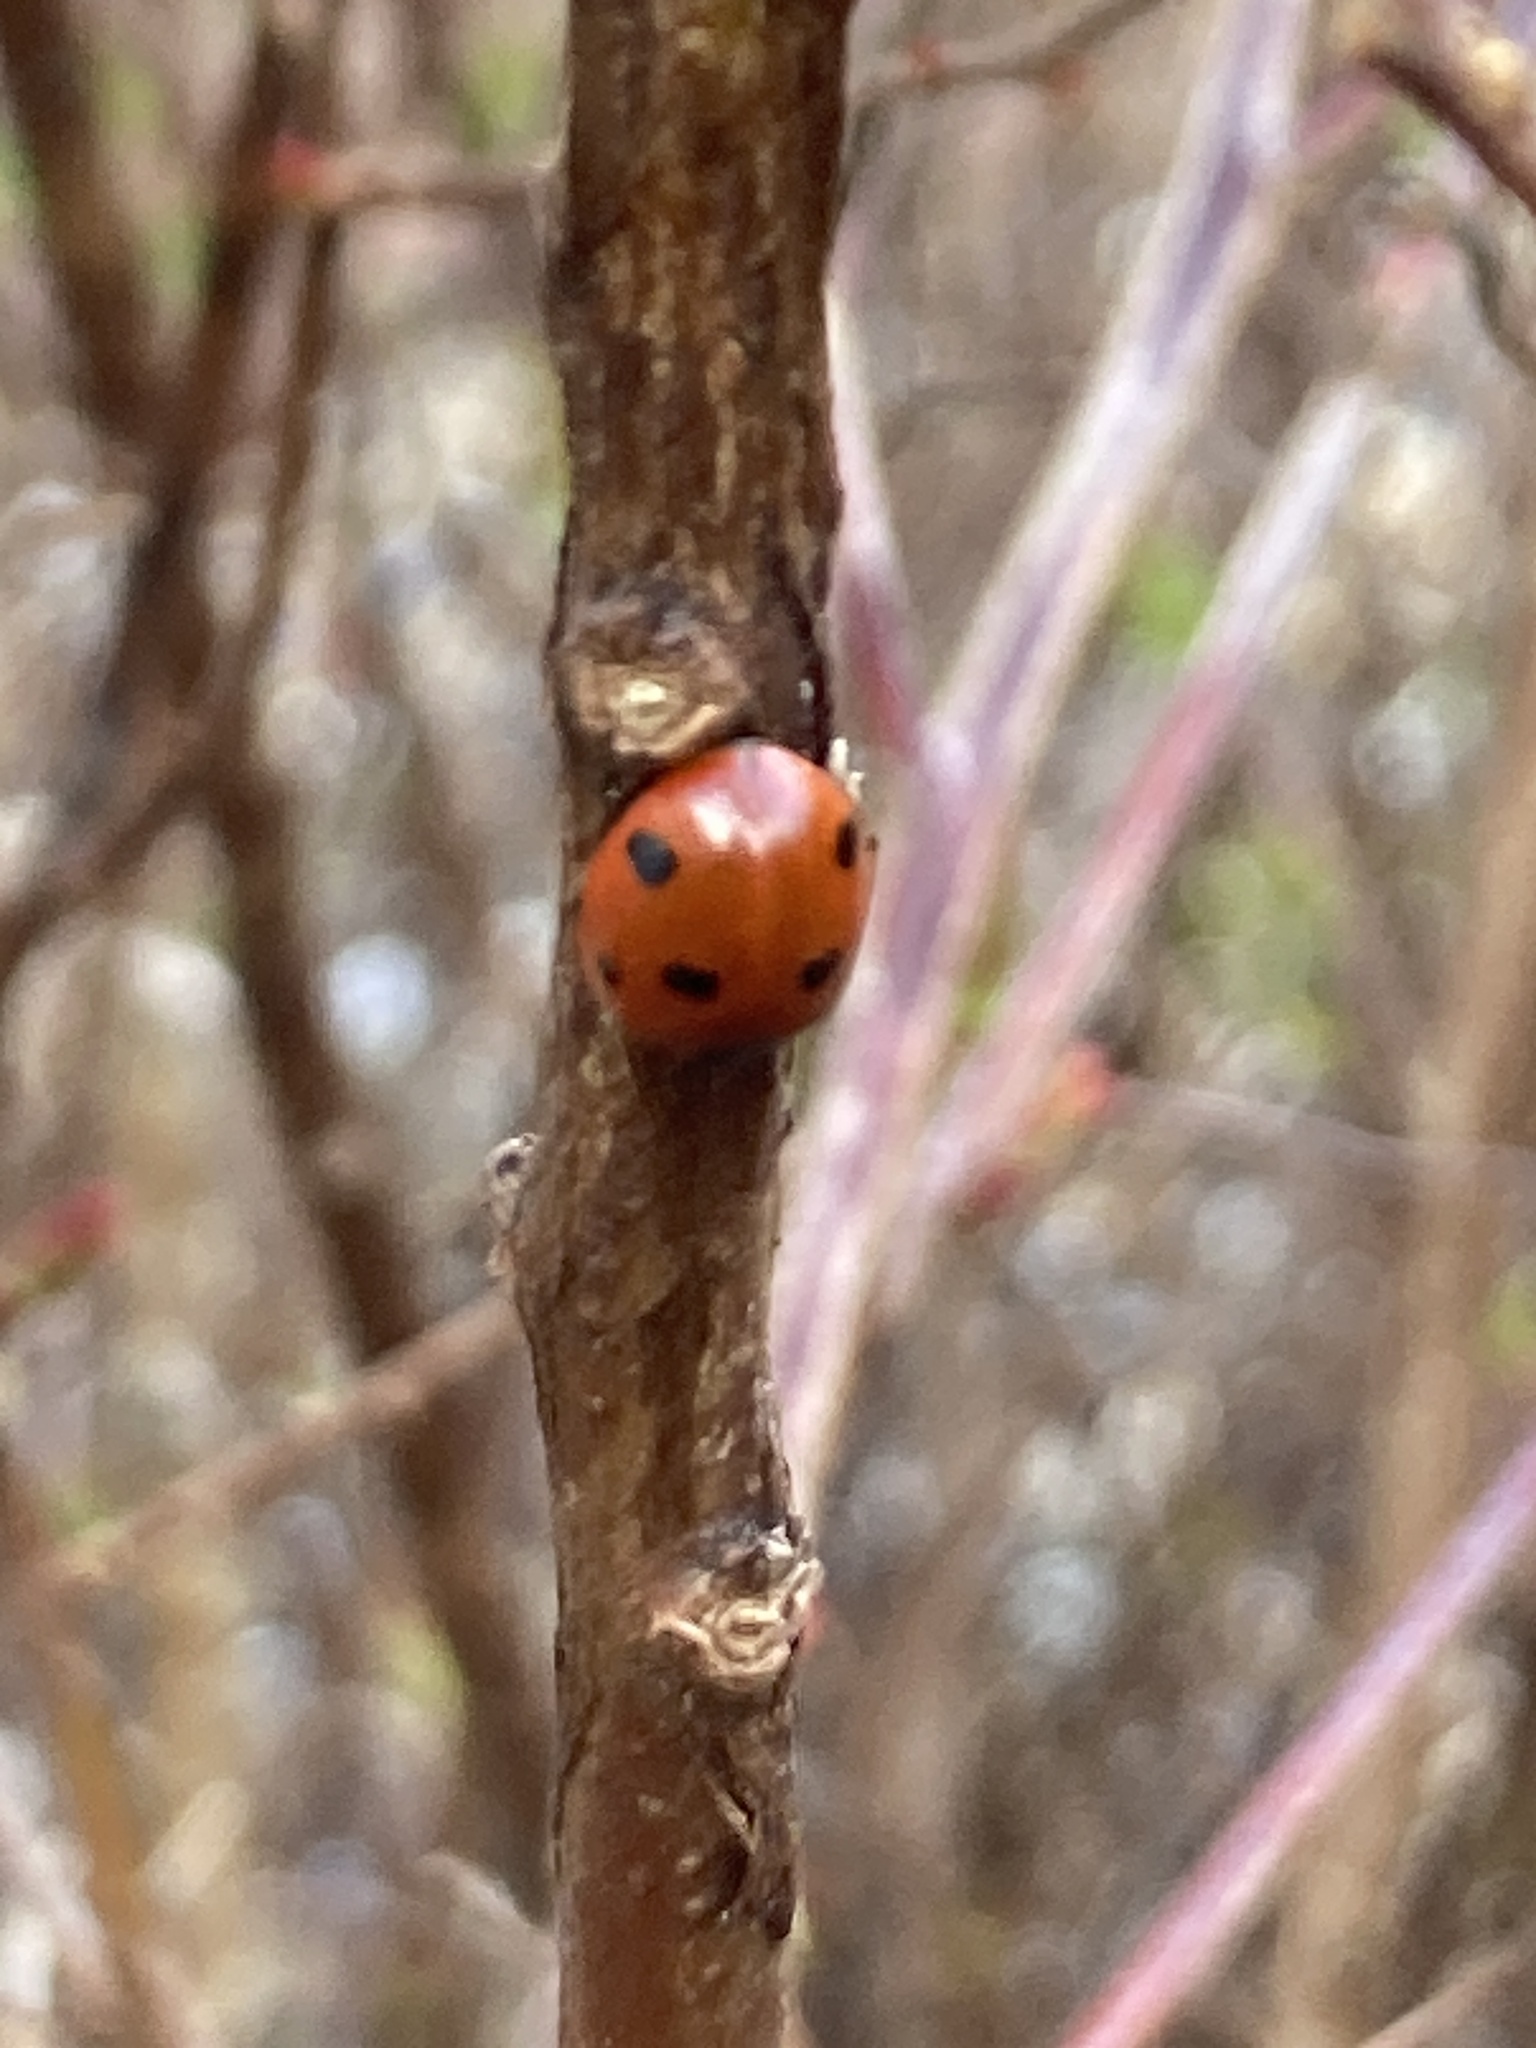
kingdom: Animalia
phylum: Arthropoda
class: Insecta
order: Coleoptera
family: Coccinellidae
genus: Coccinella
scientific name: Coccinella septempunctata
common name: Sevenspotted lady beetle
